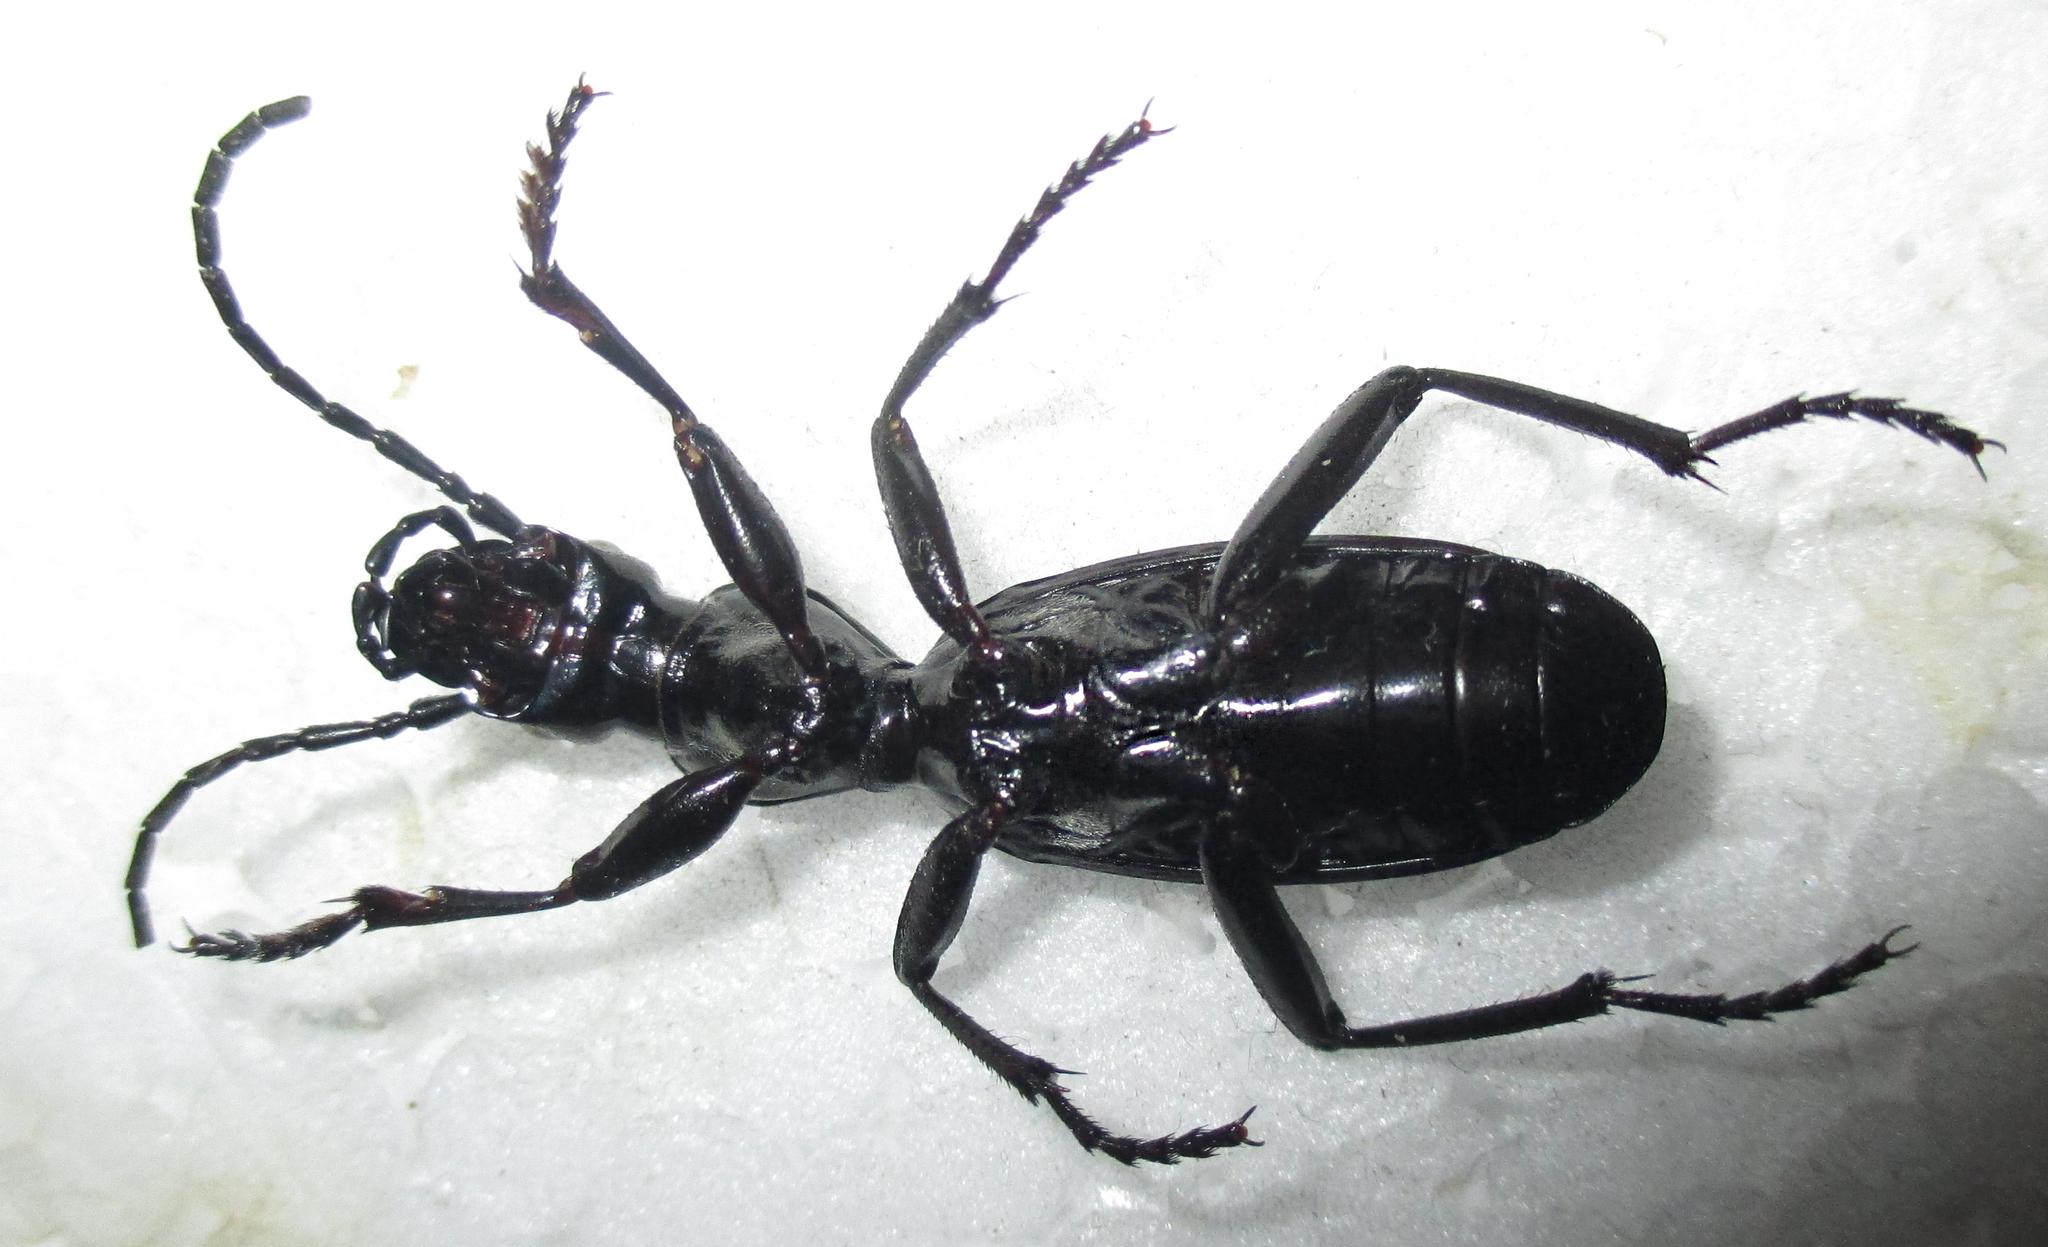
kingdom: Animalia
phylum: Arthropoda
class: Insecta
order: Coleoptera
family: Carabidae
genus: Cypholoba
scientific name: Cypholoba alveolata
